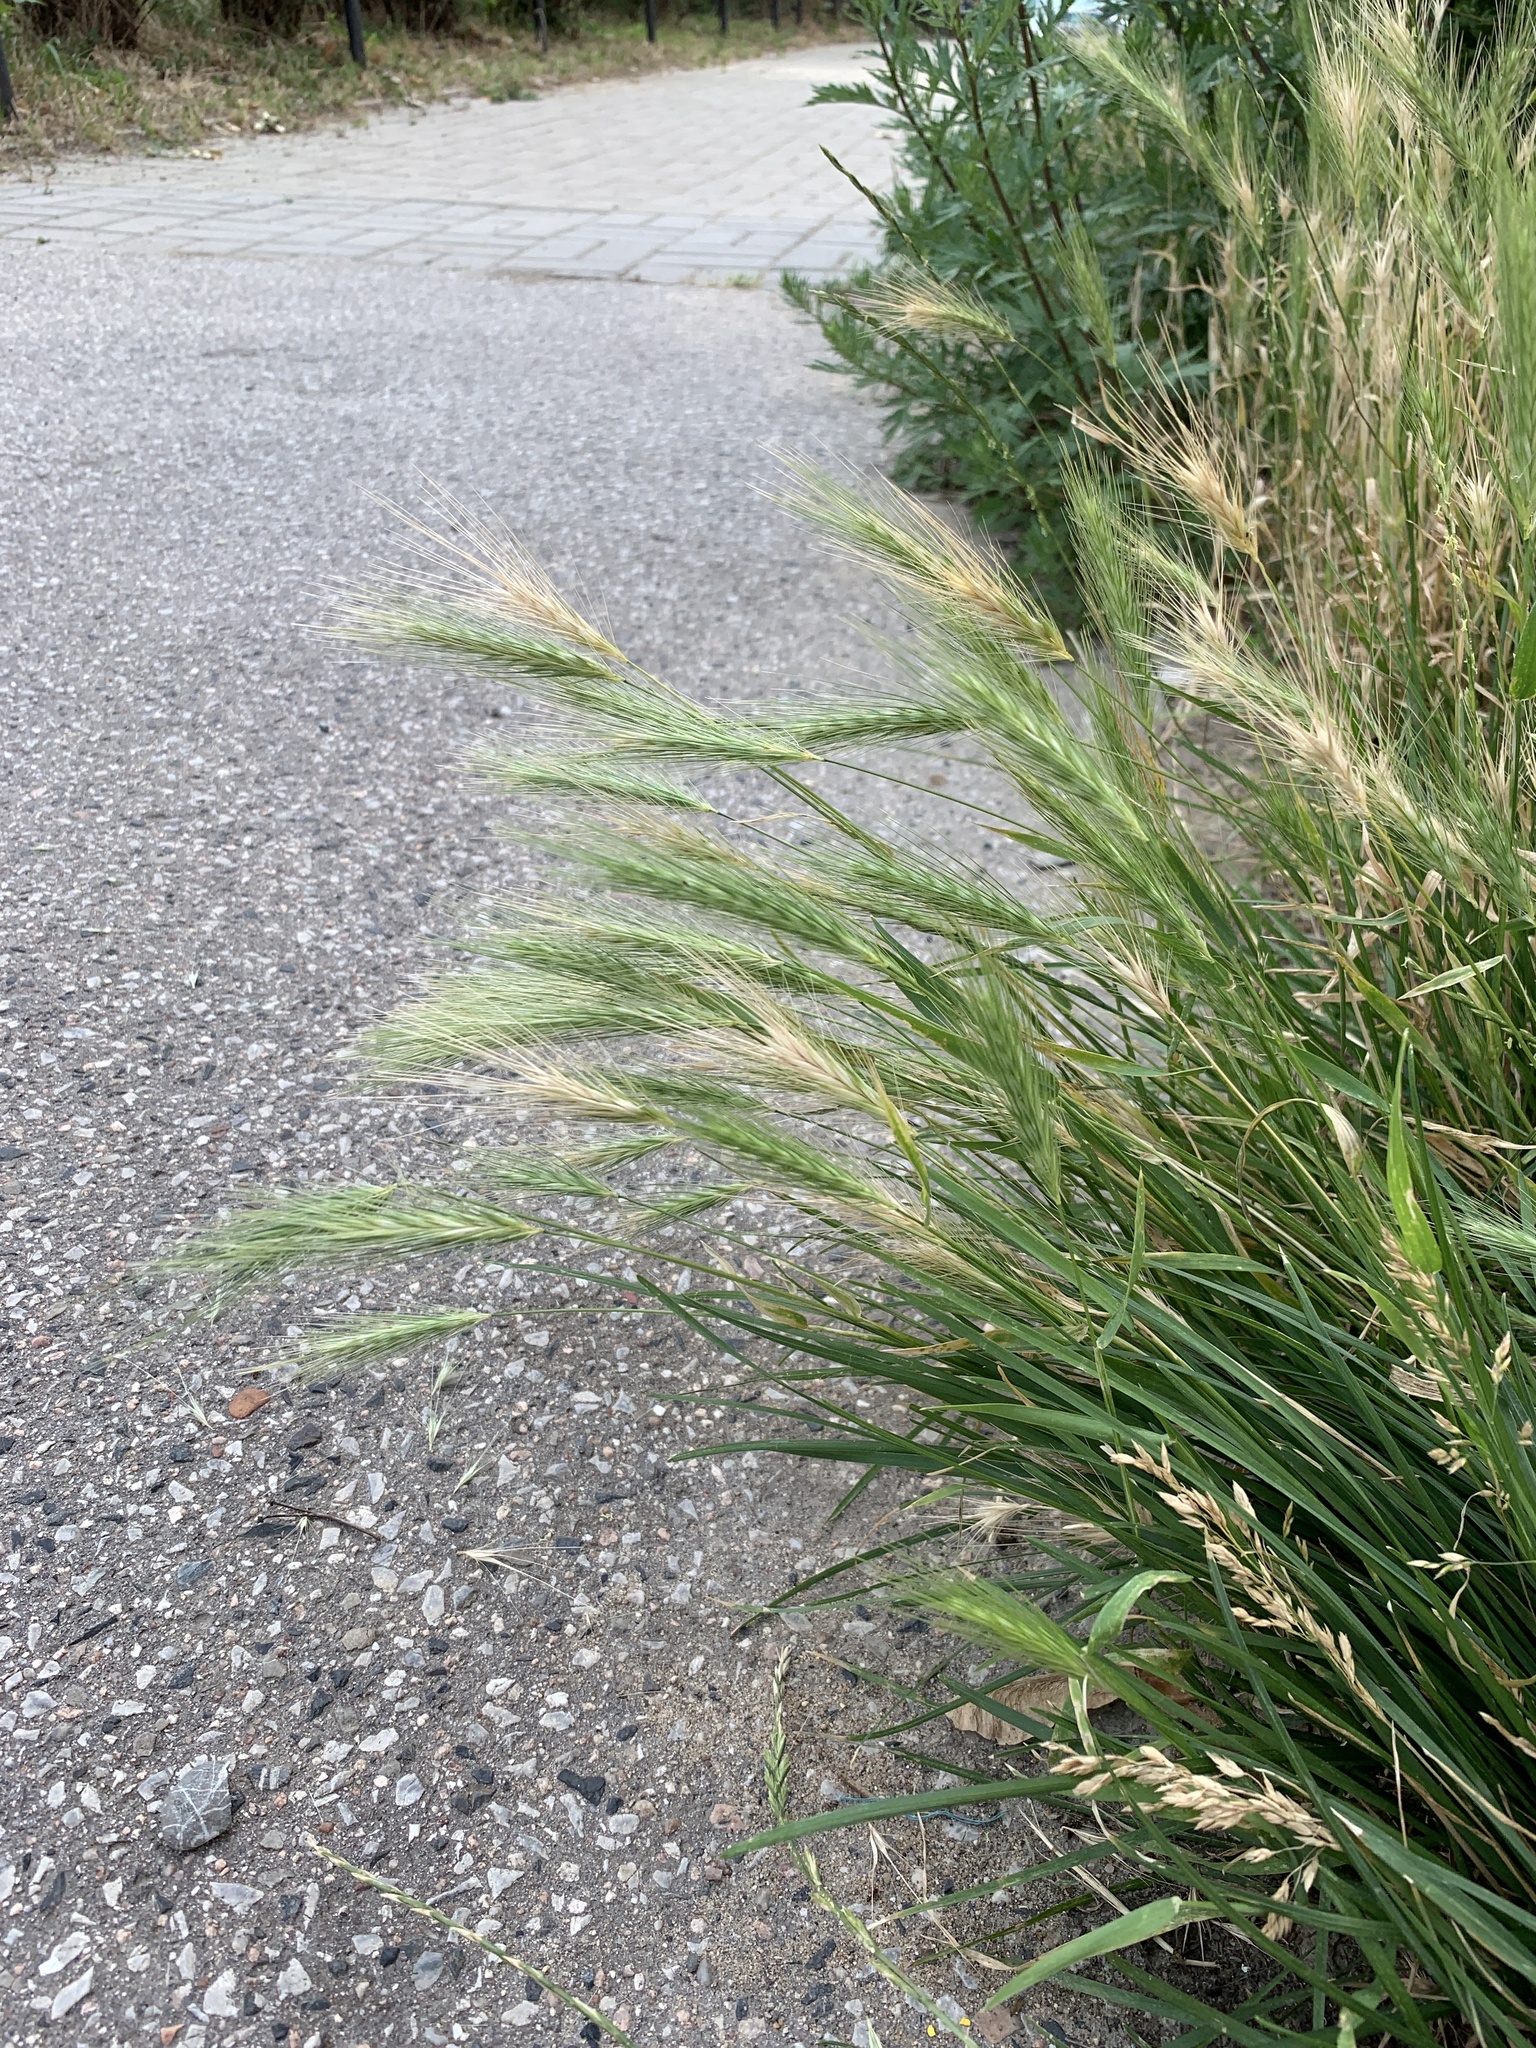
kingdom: Plantae
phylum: Tracheophyta
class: Liliopsida
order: Poales
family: Poaceae
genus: Hordeum
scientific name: Hordeum murinum
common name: Wall barley
